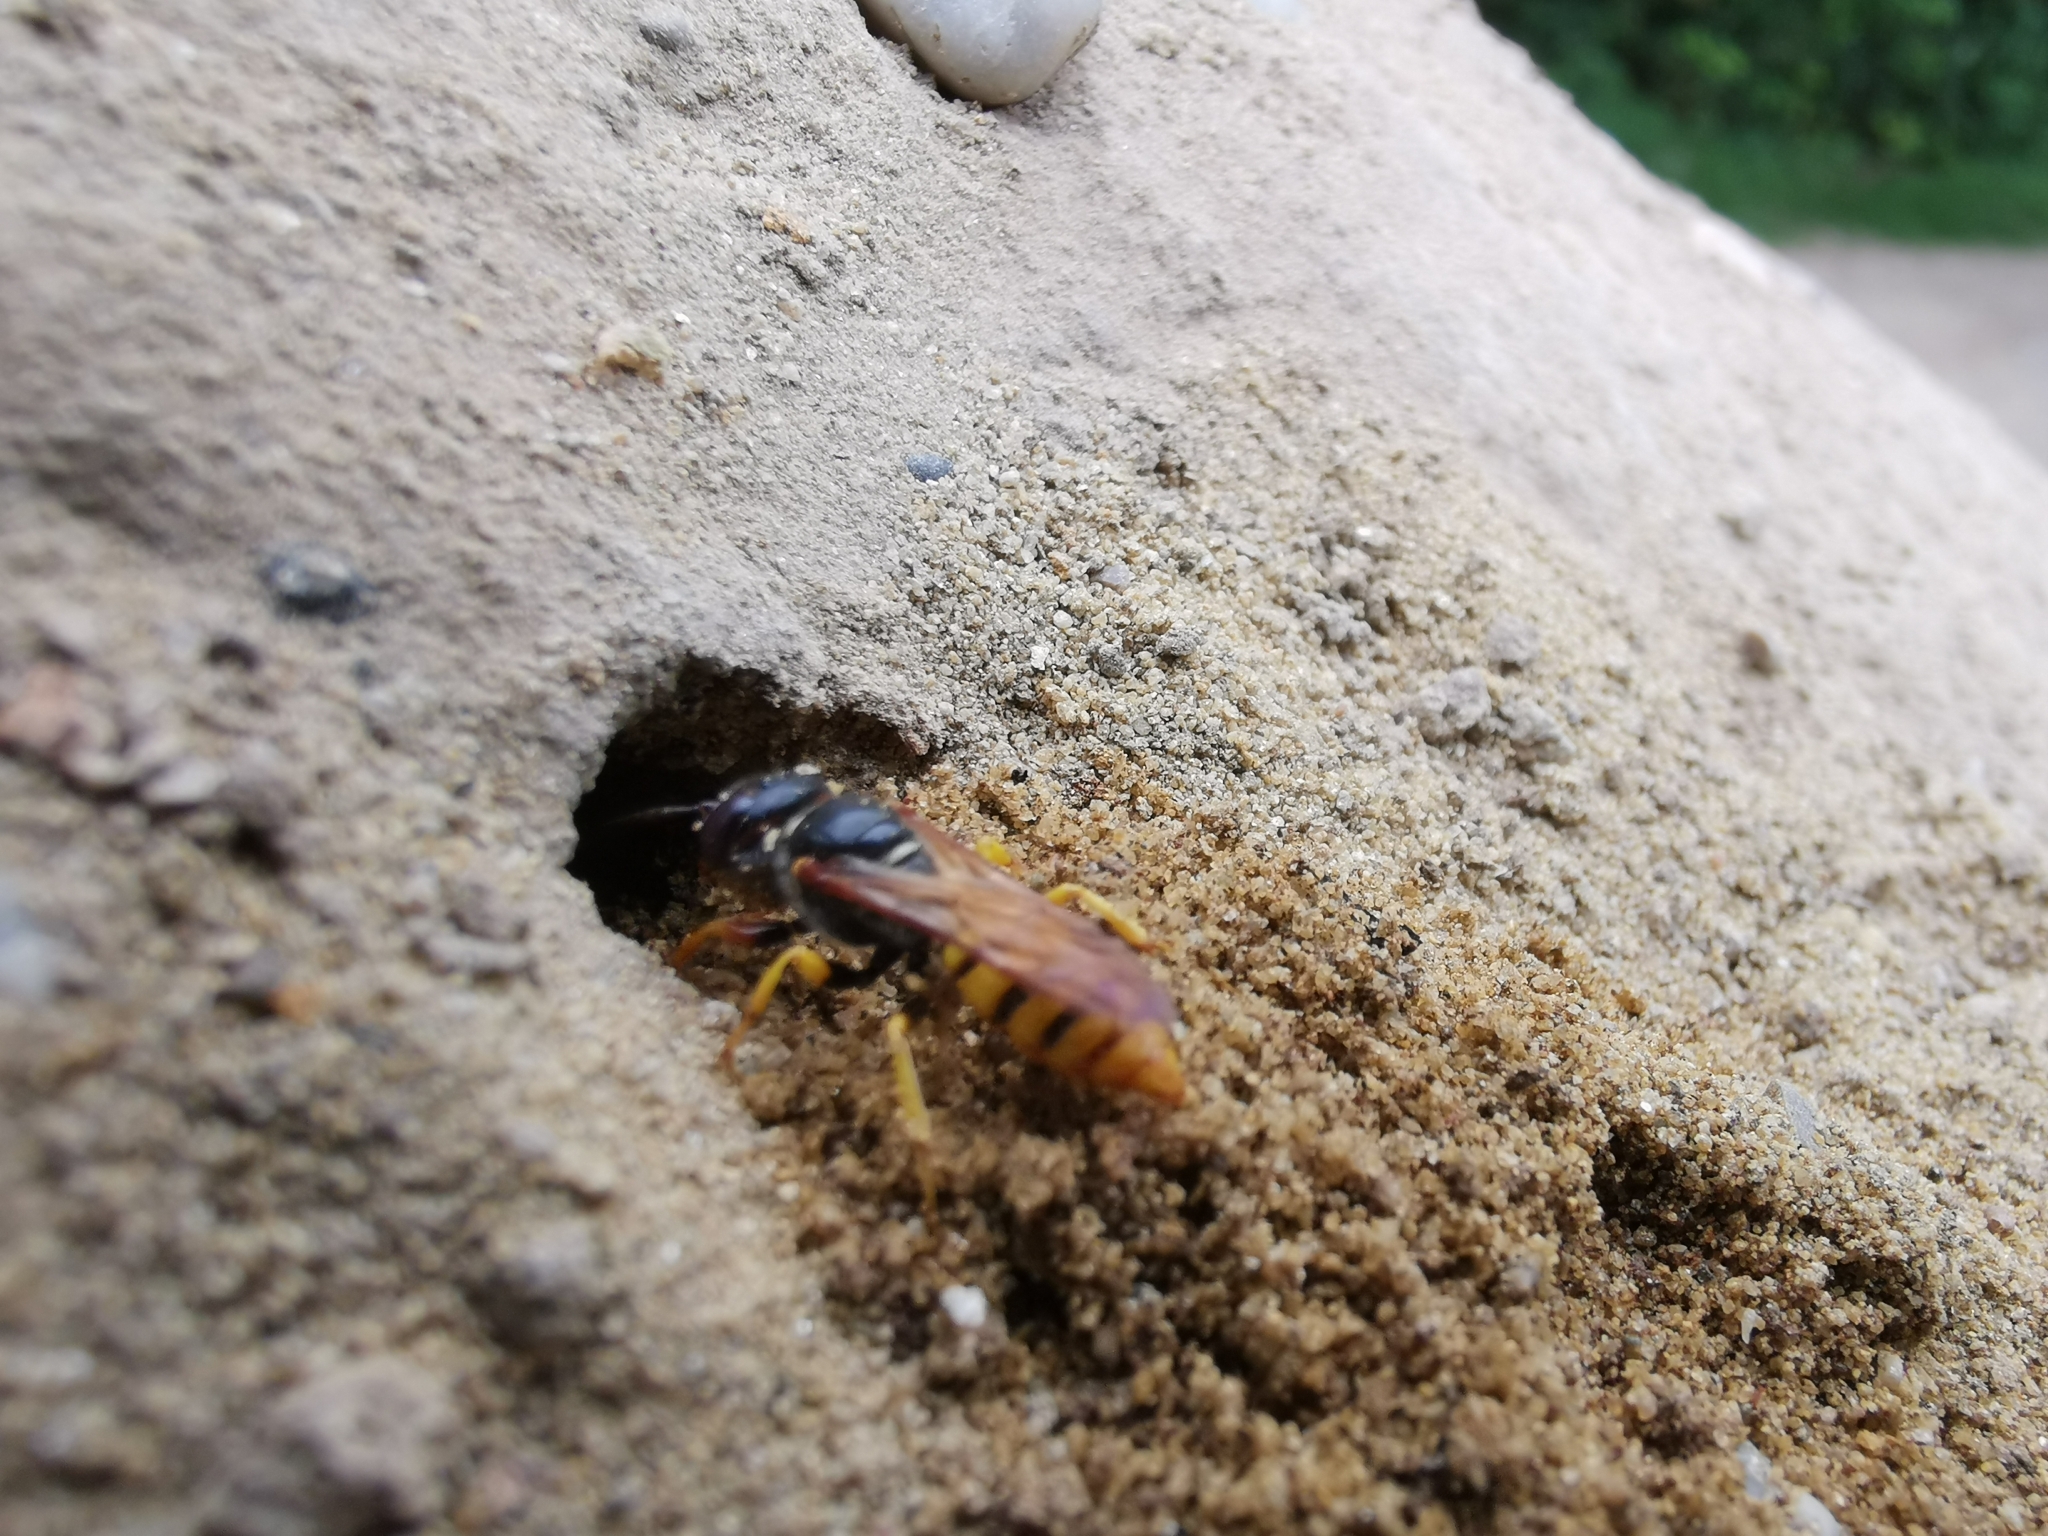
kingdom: Animalia
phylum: Arthropoda
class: Insecta
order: Hymenoptera
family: Crabronidae
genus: Philanthus
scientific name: Philanthus triangulum
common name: Bee wolf
